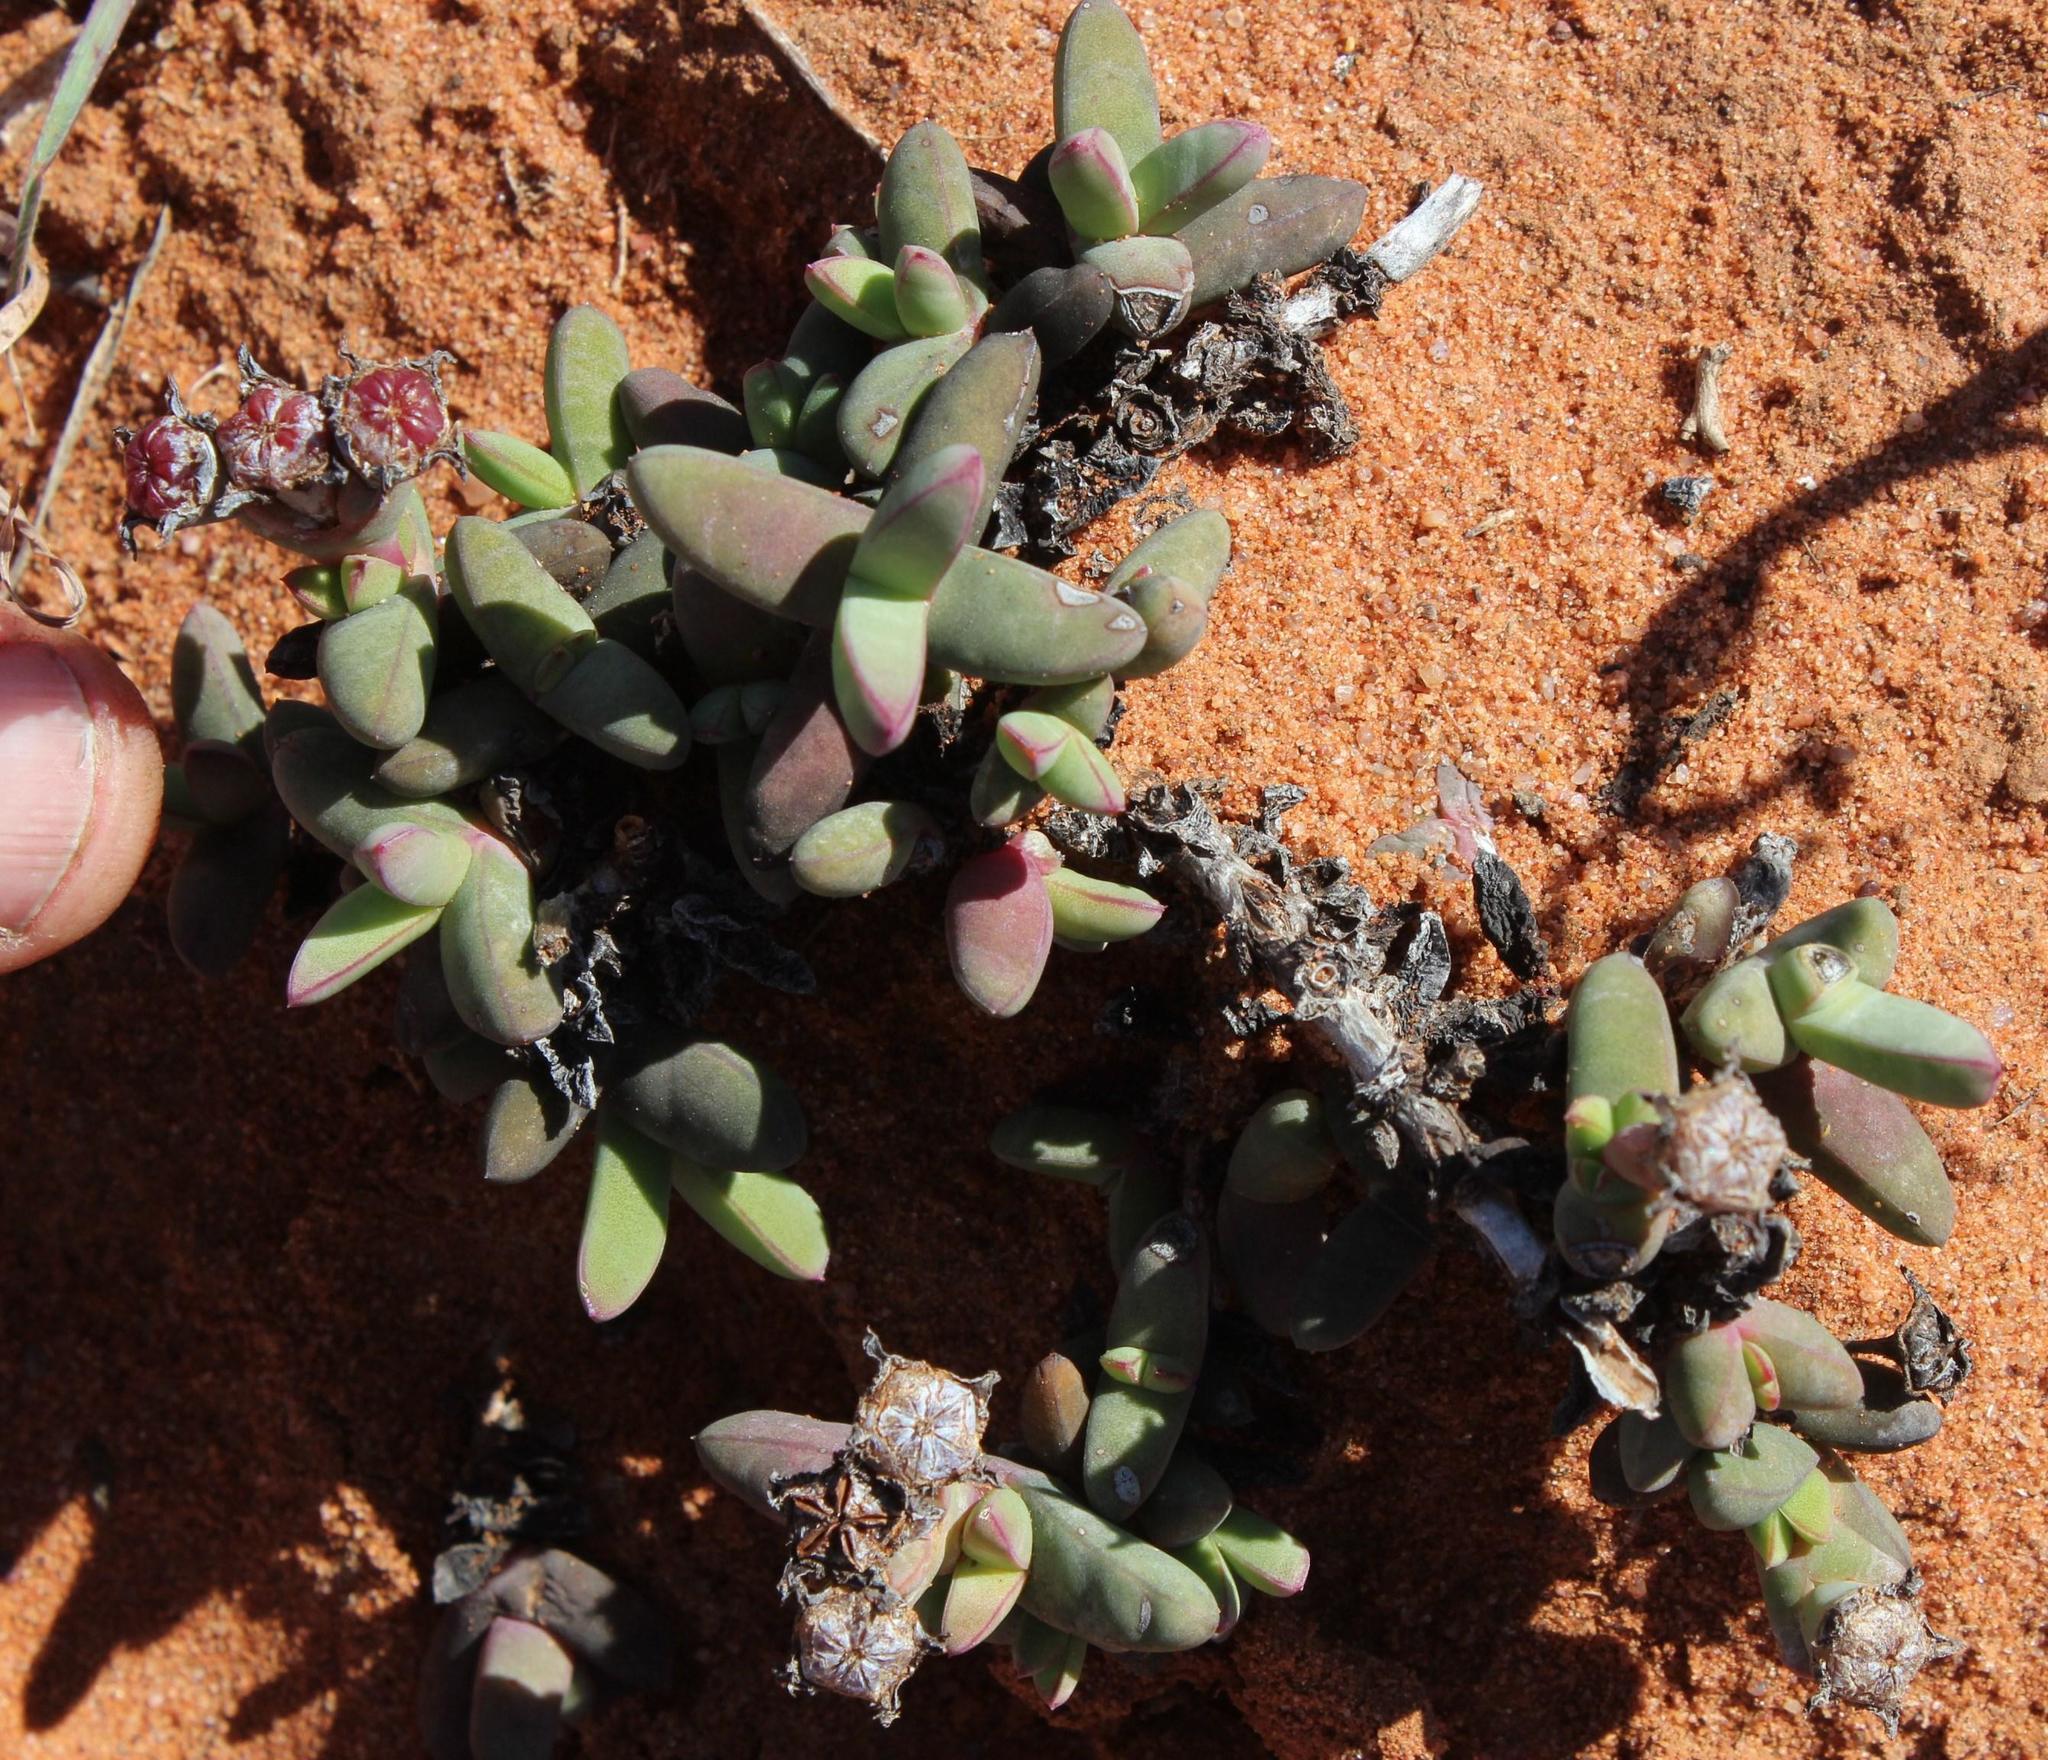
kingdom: Plantae
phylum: Tracheophyta
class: Magnoliopsida
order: Caryophyllales
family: Aizoaceae
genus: Antimima
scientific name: Antimima solida
